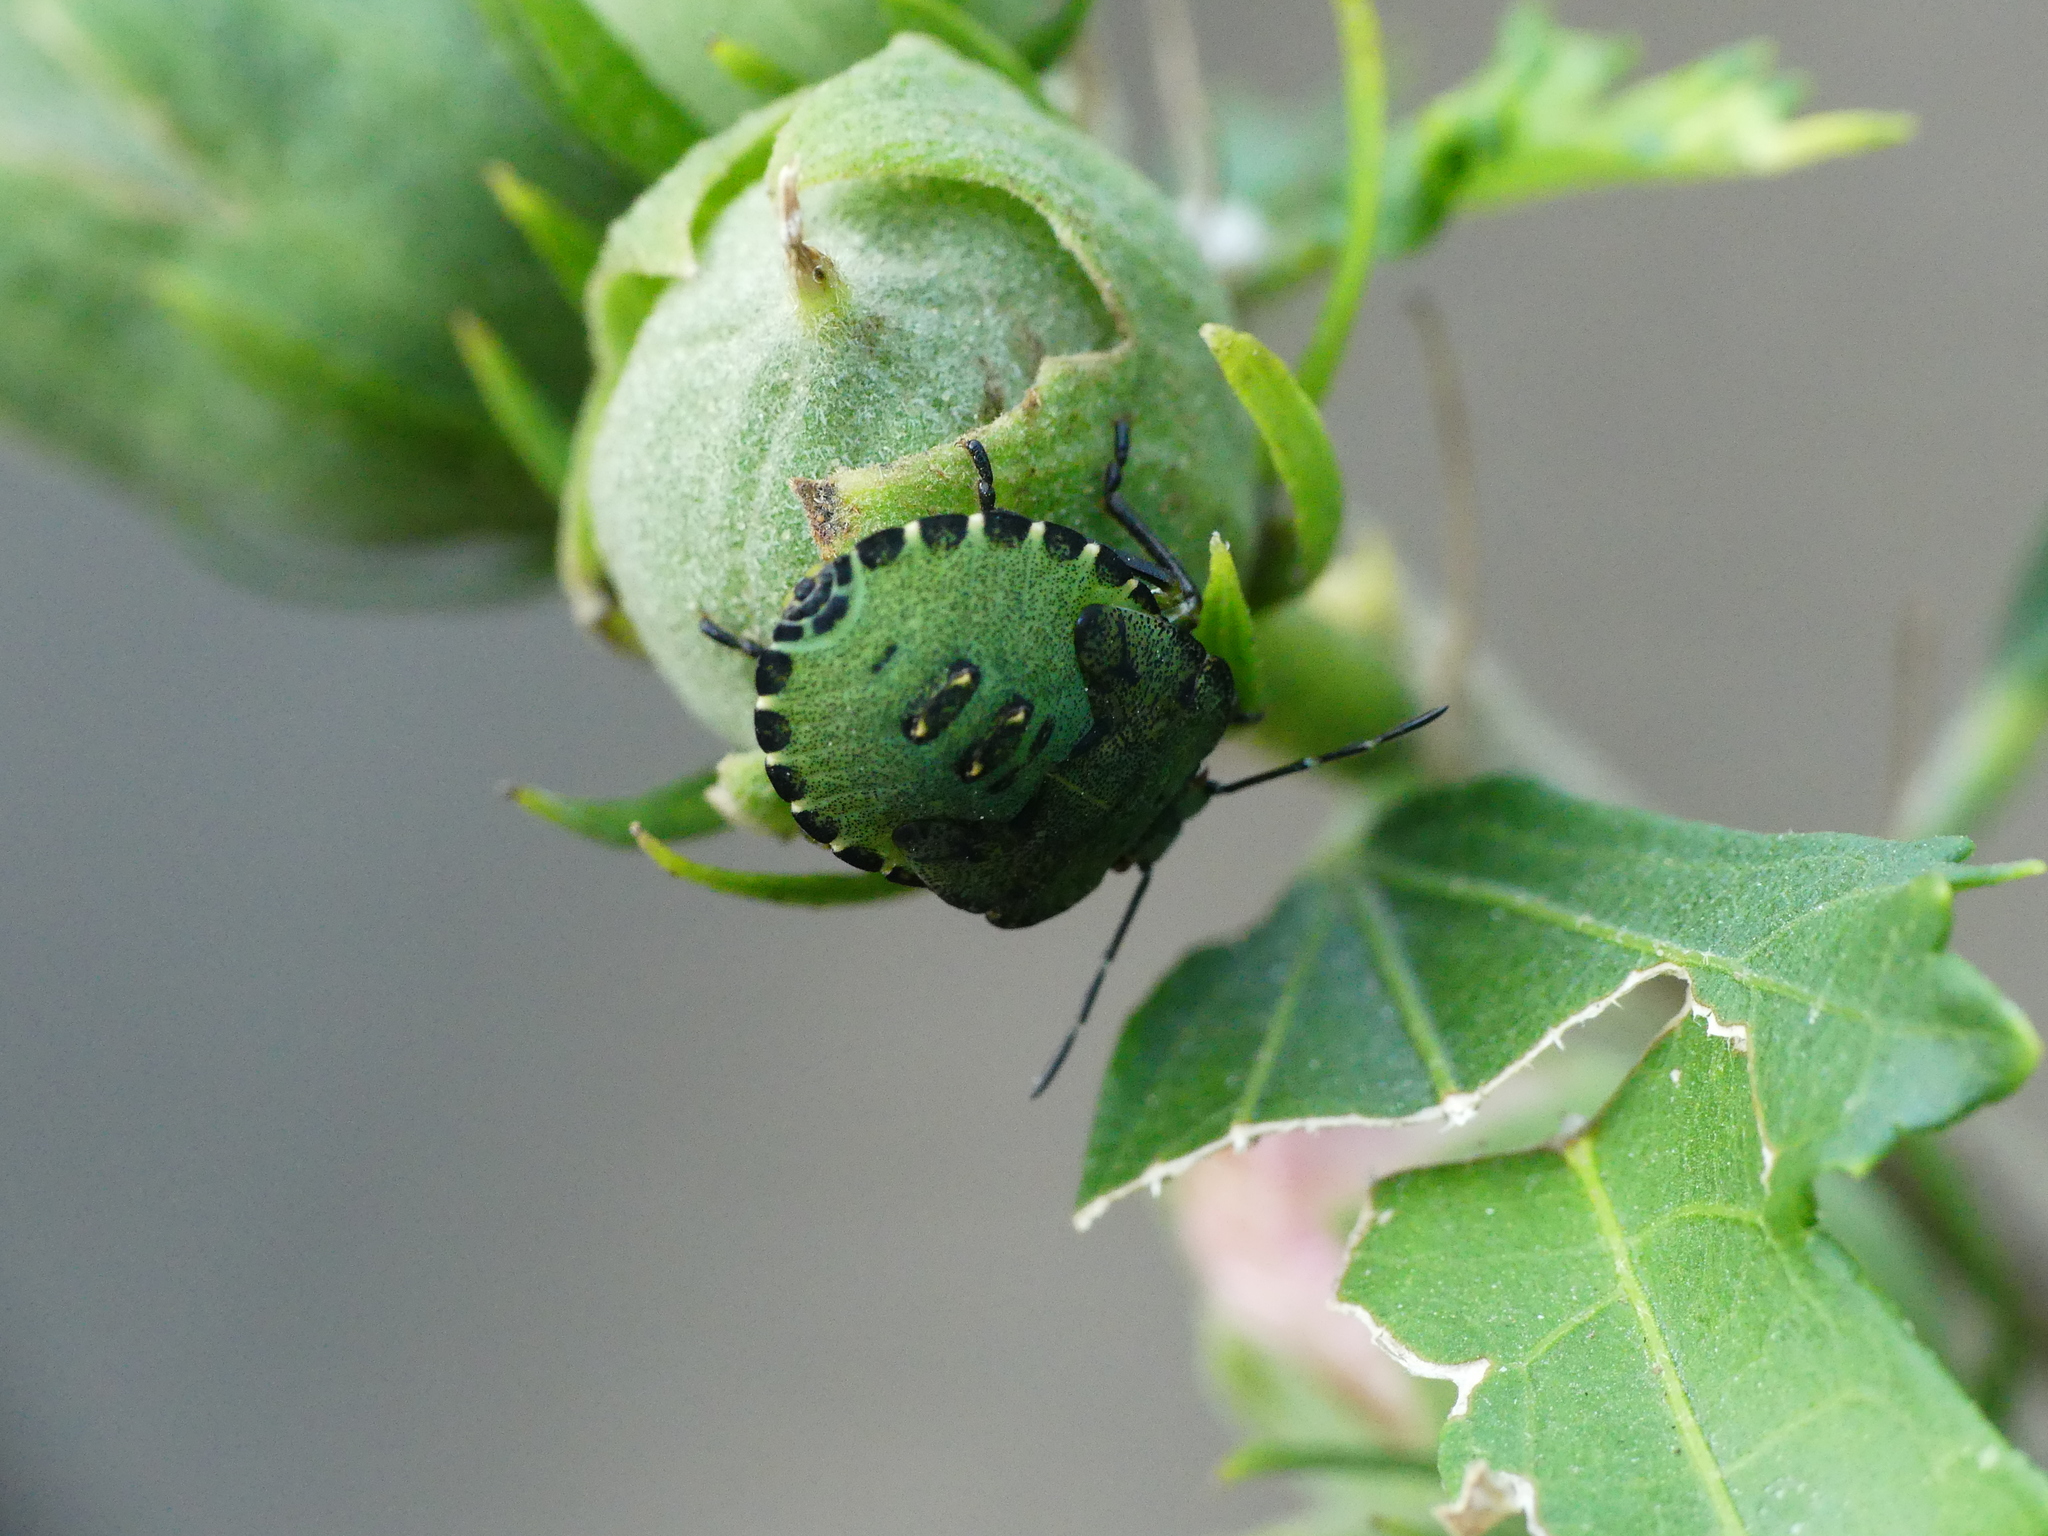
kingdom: Animalia
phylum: Arthropoda
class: Insecta
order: Hemiptera
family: Pentatomidae
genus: Palomena
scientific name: Palomena prasina
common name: Green shieldbug
